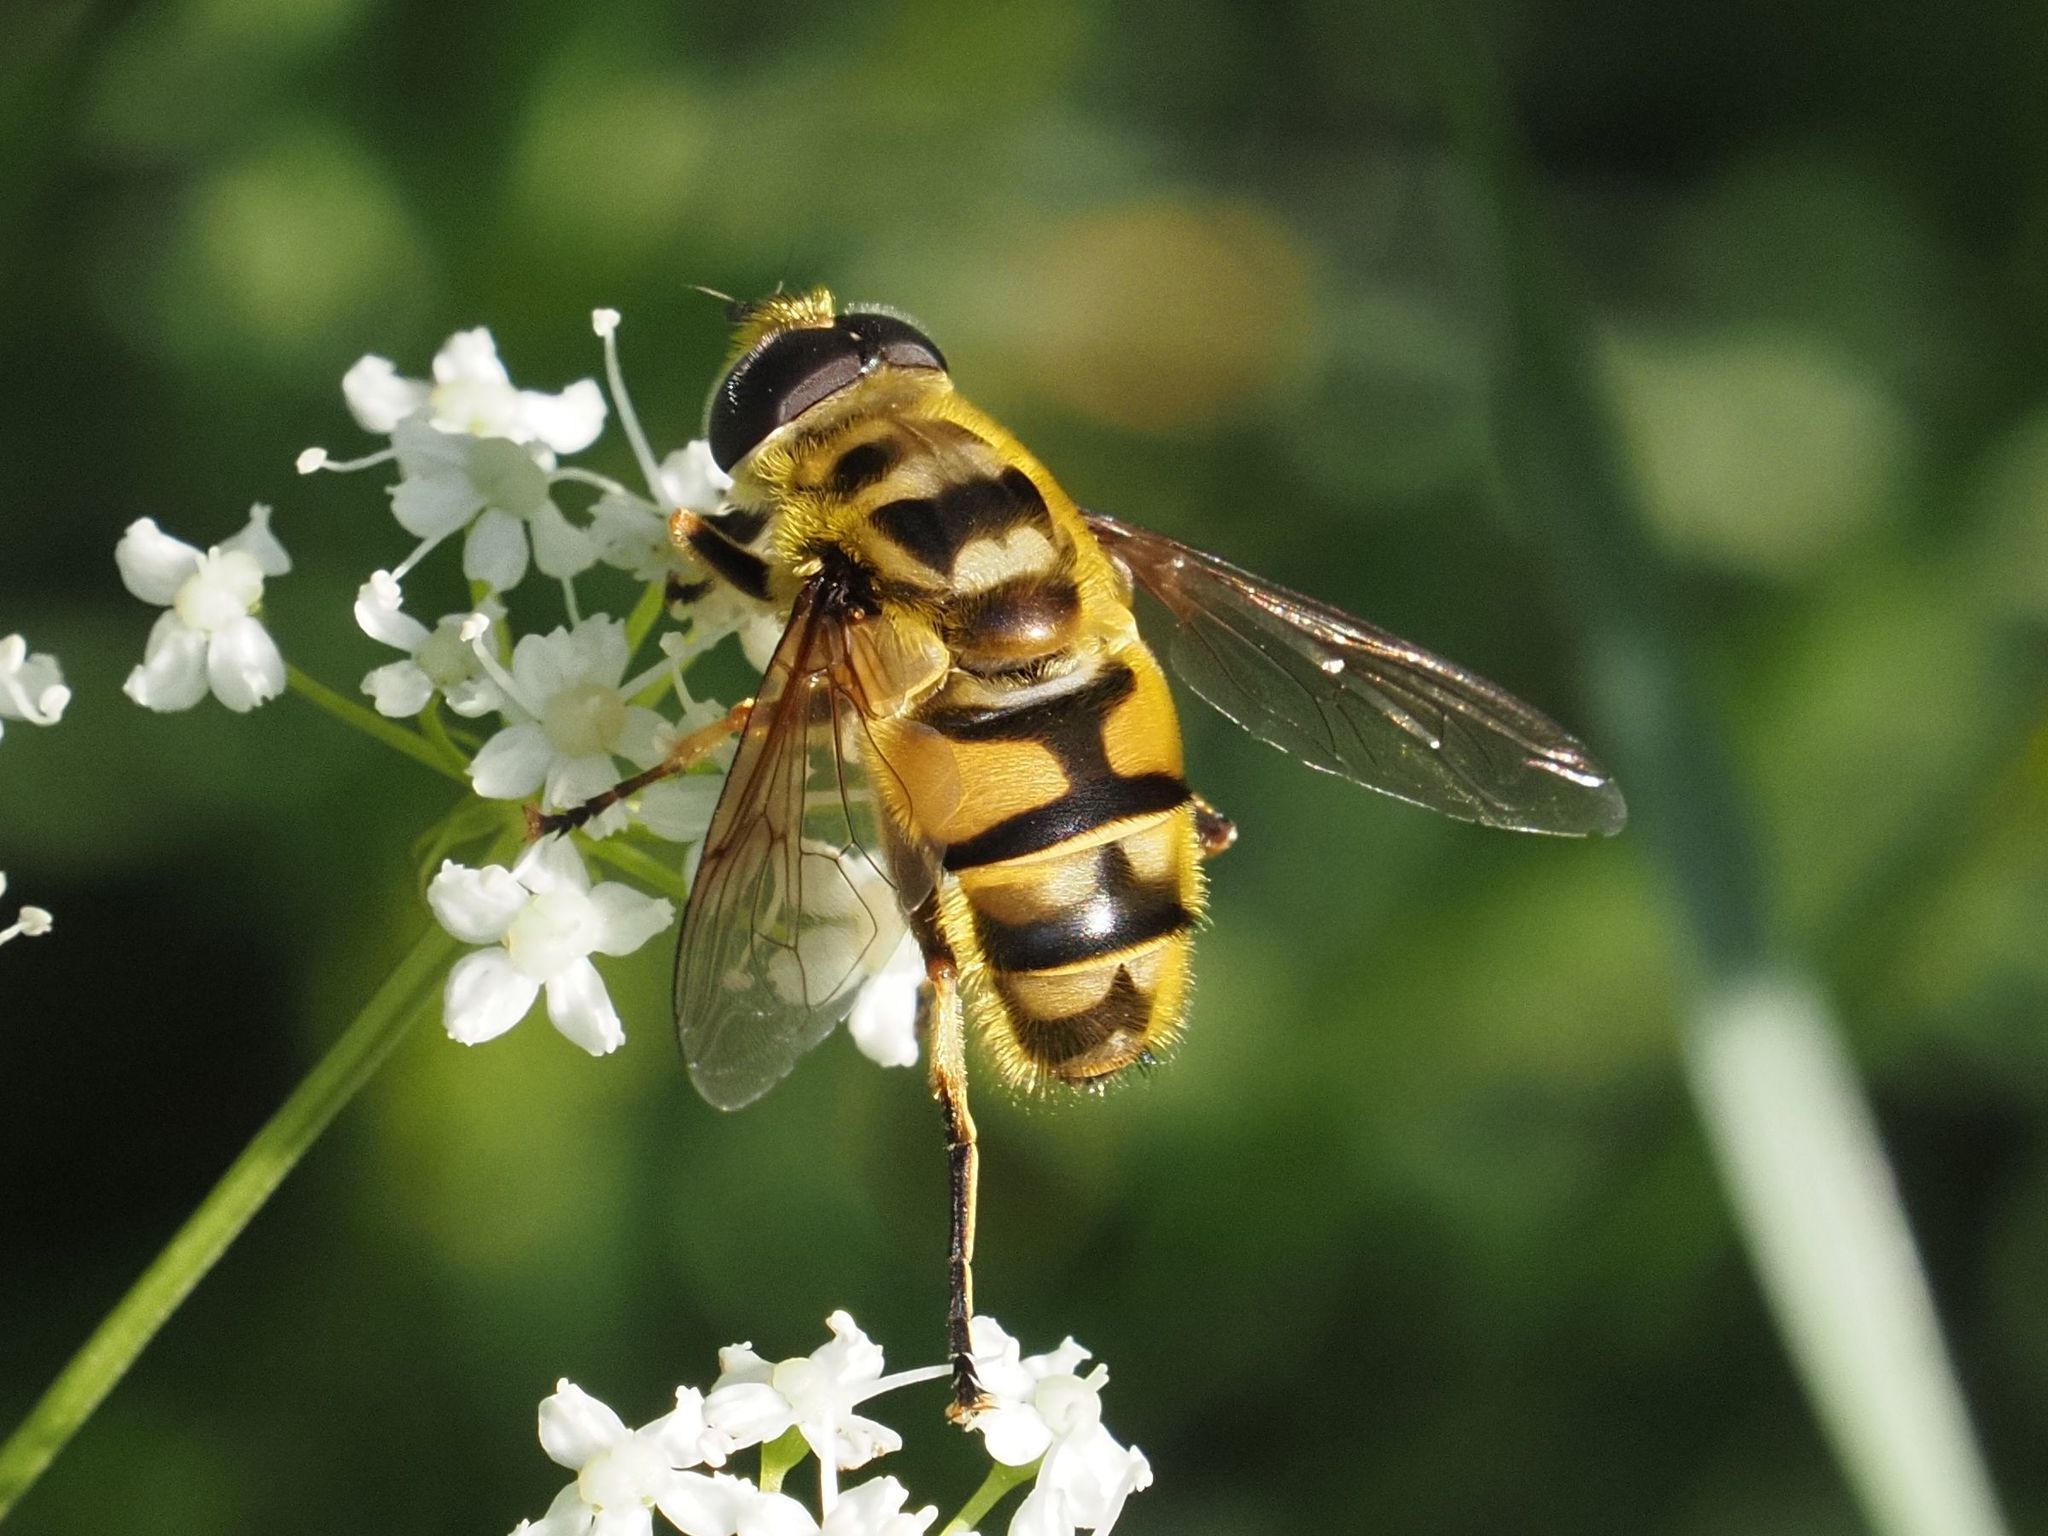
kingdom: Animalia
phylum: Arthropoda
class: Insecta
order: Diptera
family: Syrphidae
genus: Myathropa
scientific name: Myathropa florea
